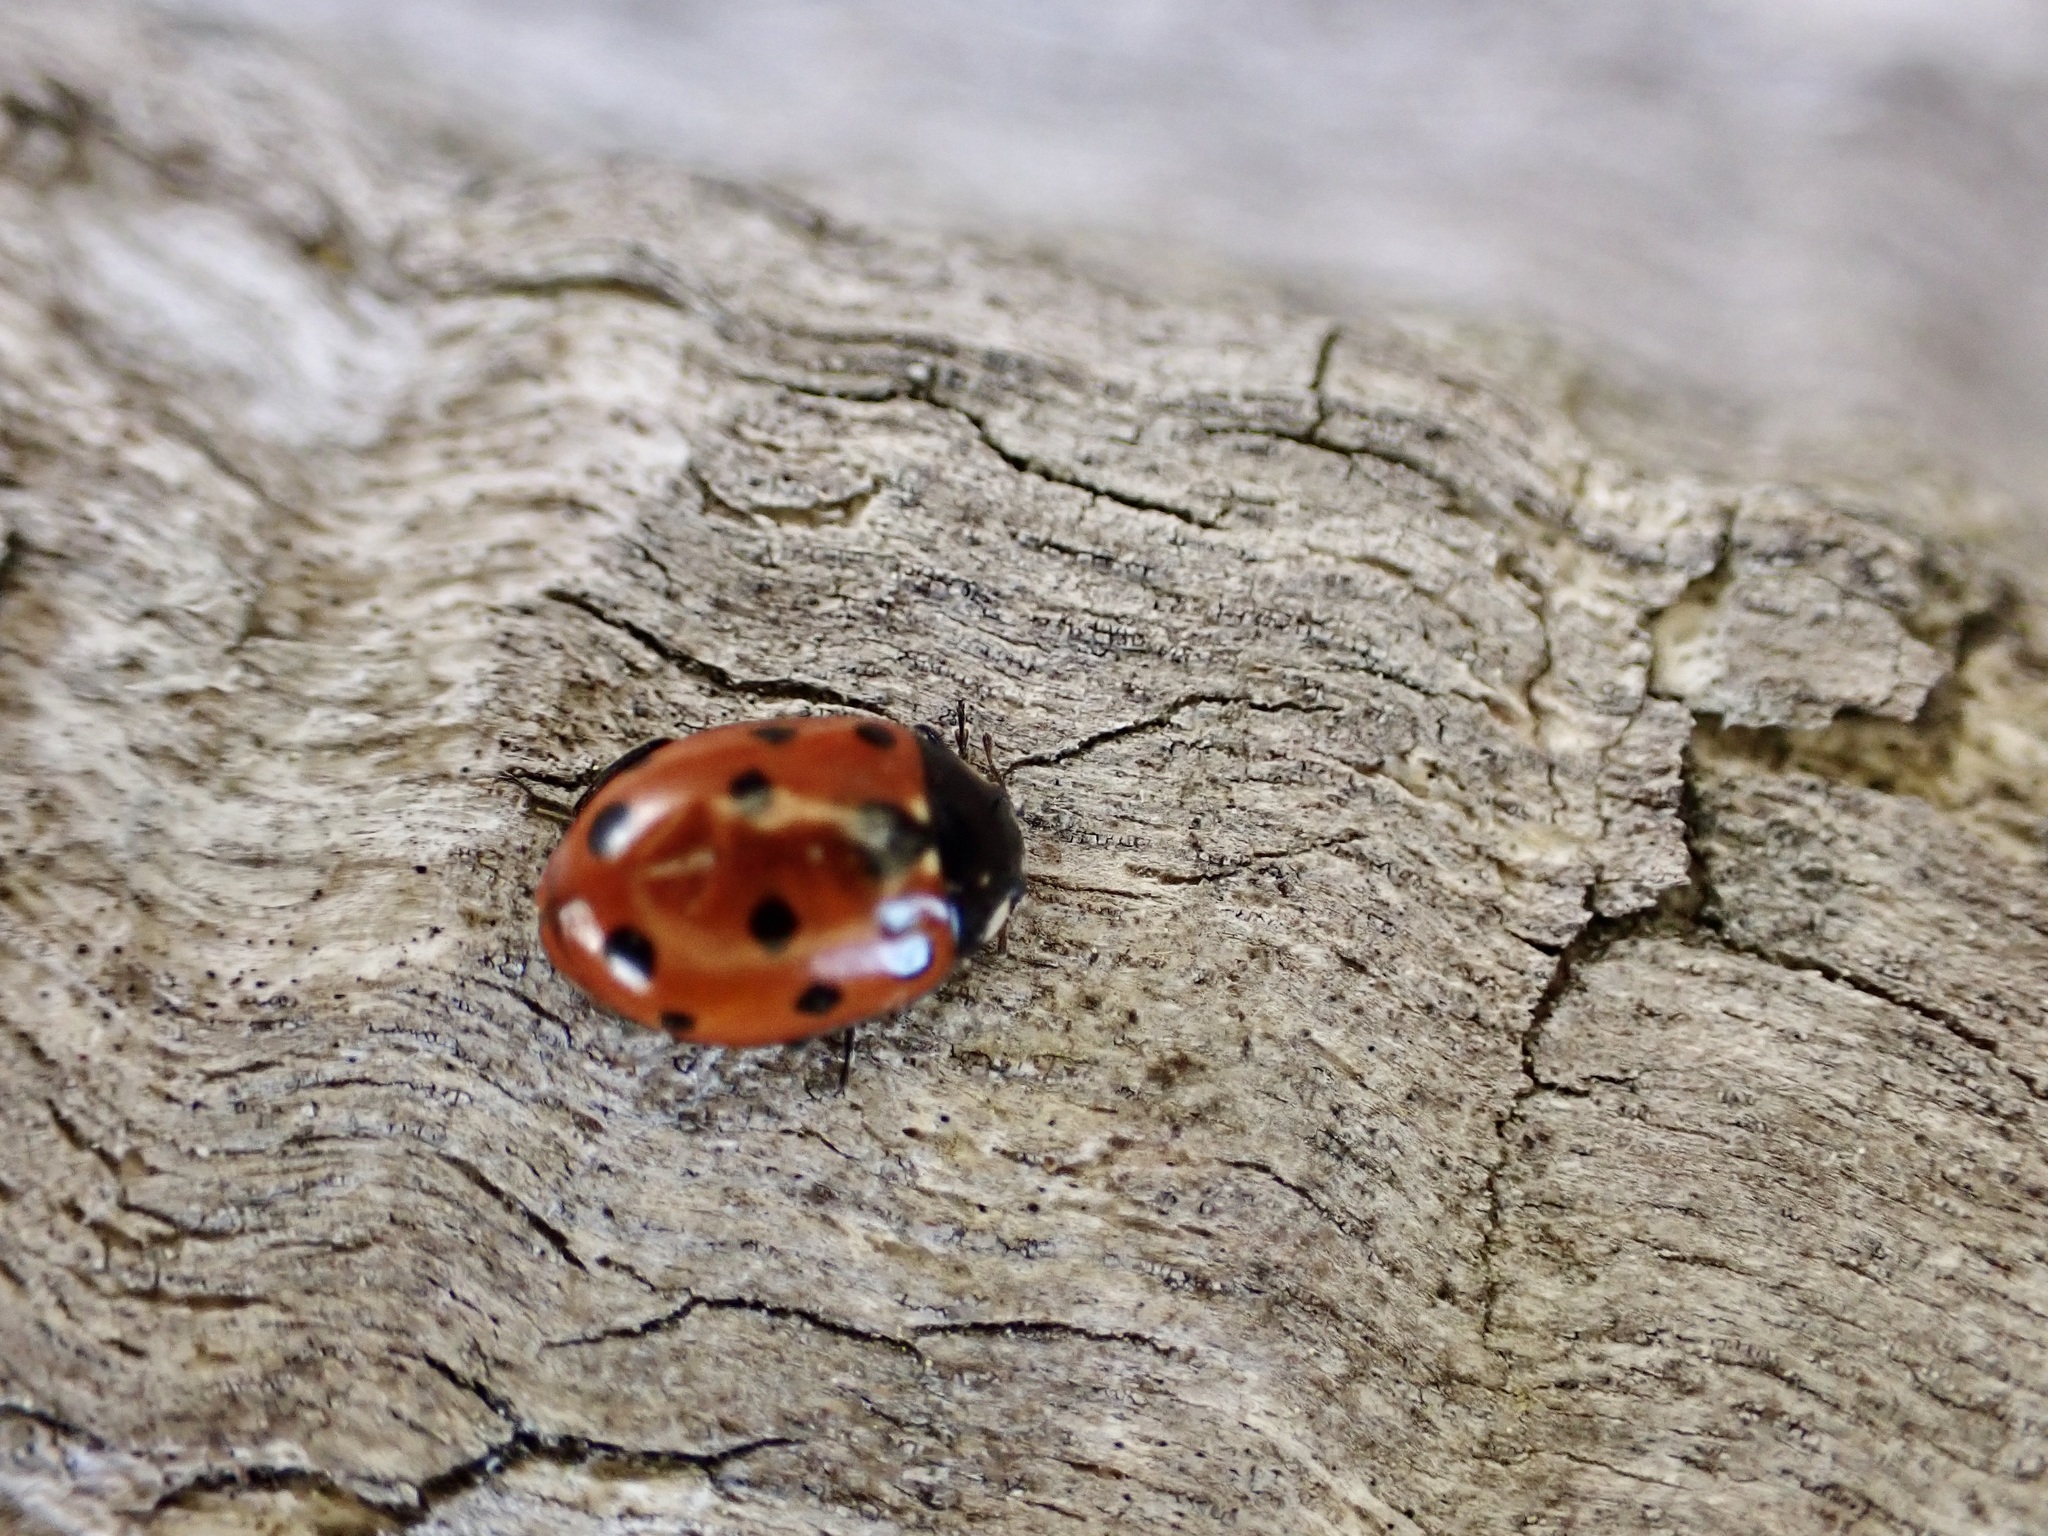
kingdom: Animalia
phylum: Arthropoda
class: Insecta
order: Coleoptera
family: Coccinellidae
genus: Coccinella
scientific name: Coccinella undecimpunctata
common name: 11-spot ladybird
